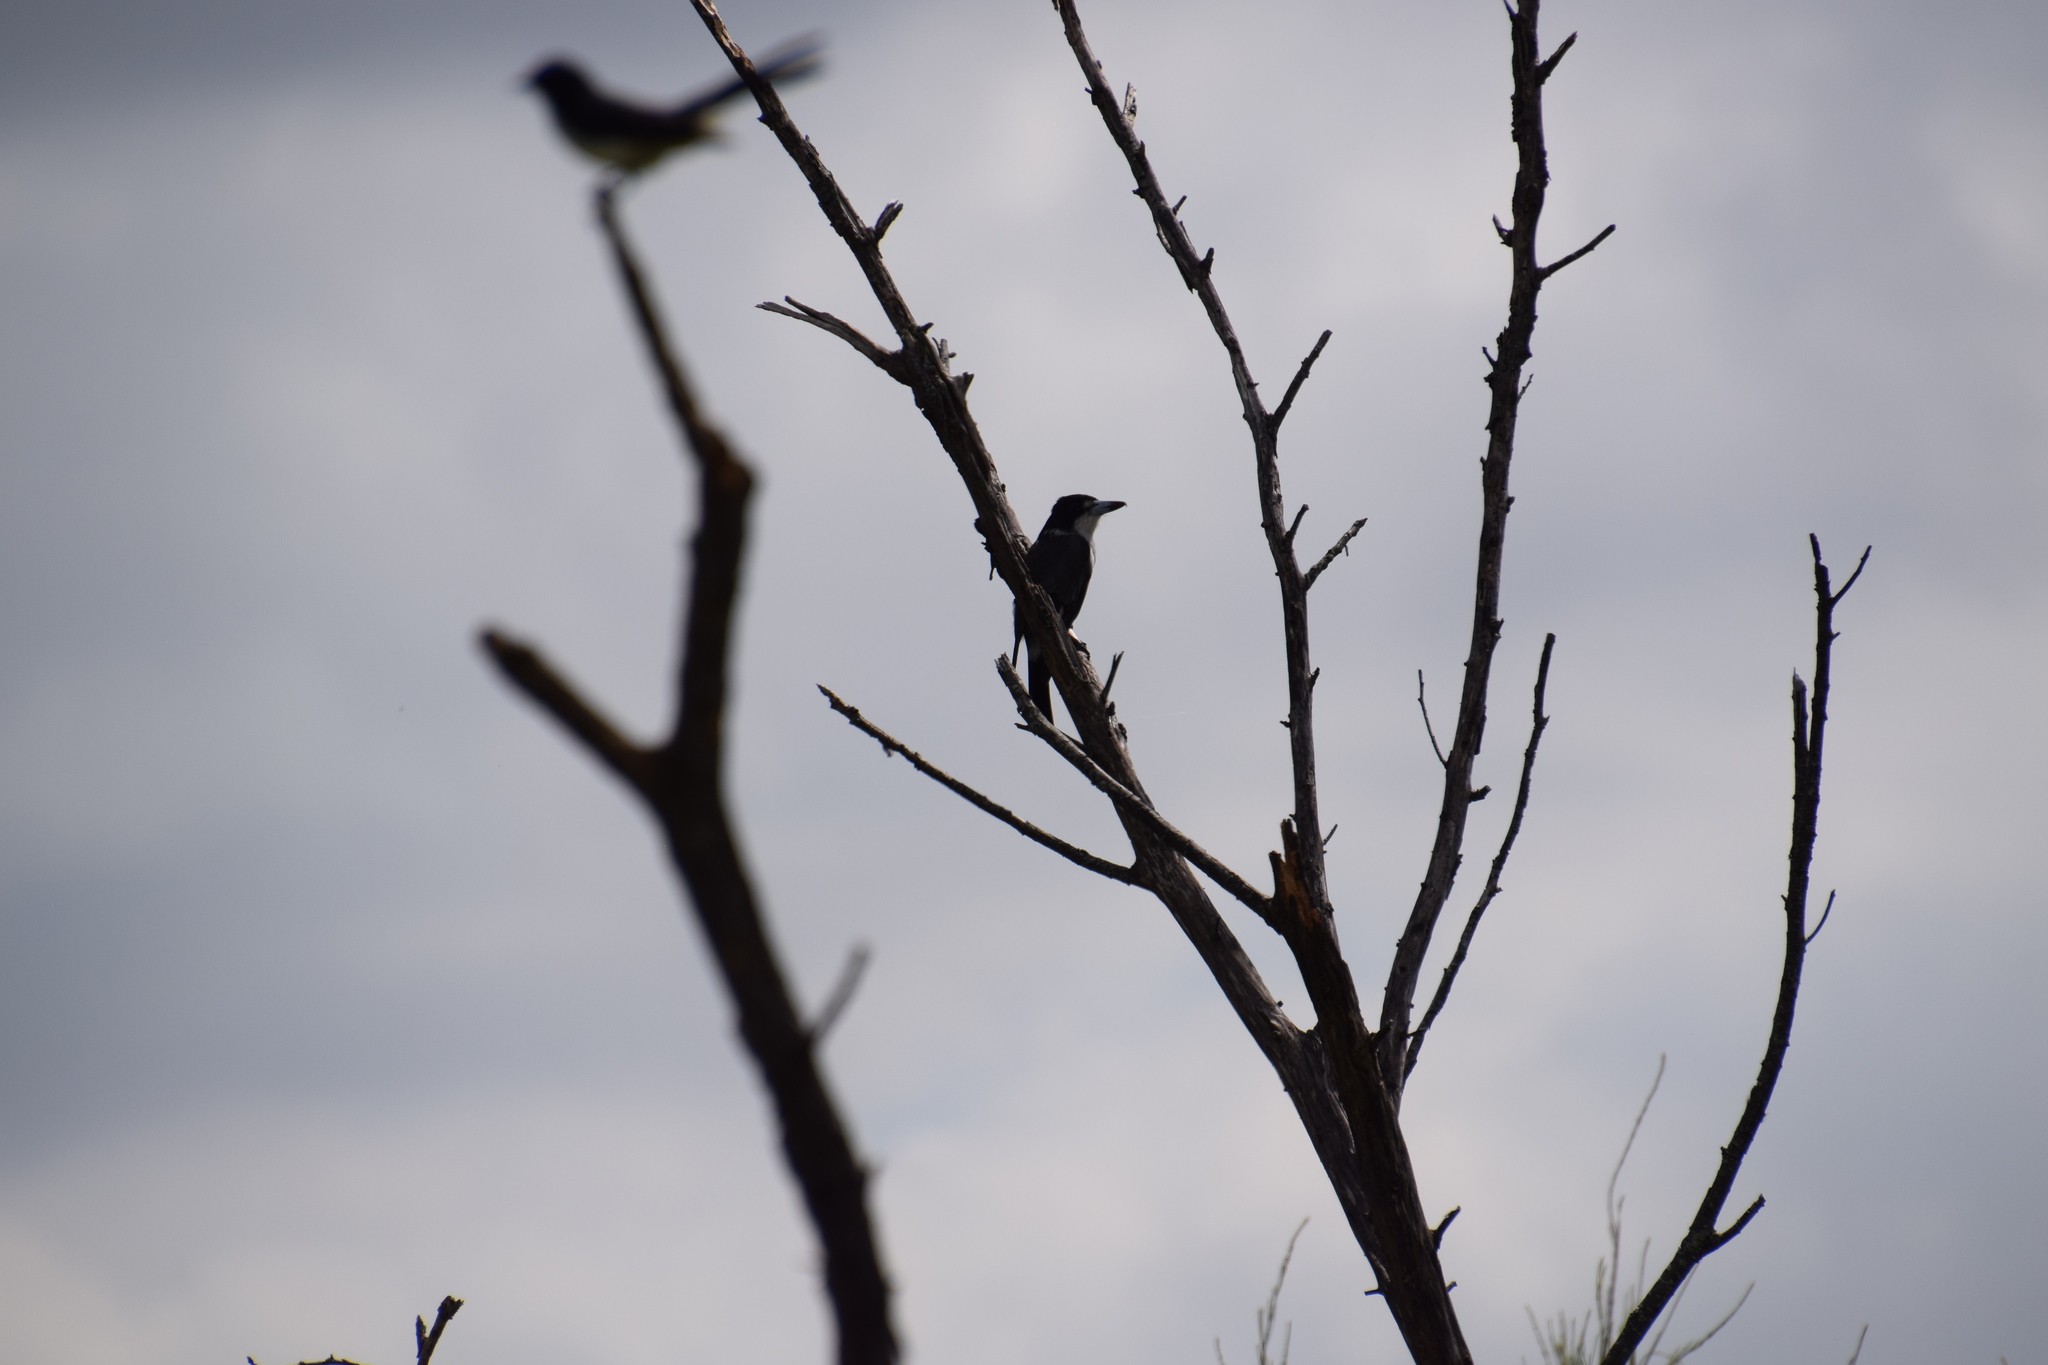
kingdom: Animalia
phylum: Chordata
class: Aves
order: Passeriformes
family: Cracticidae
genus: Cracticus
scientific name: Cracticus torquatus
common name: Grey butcherbird
